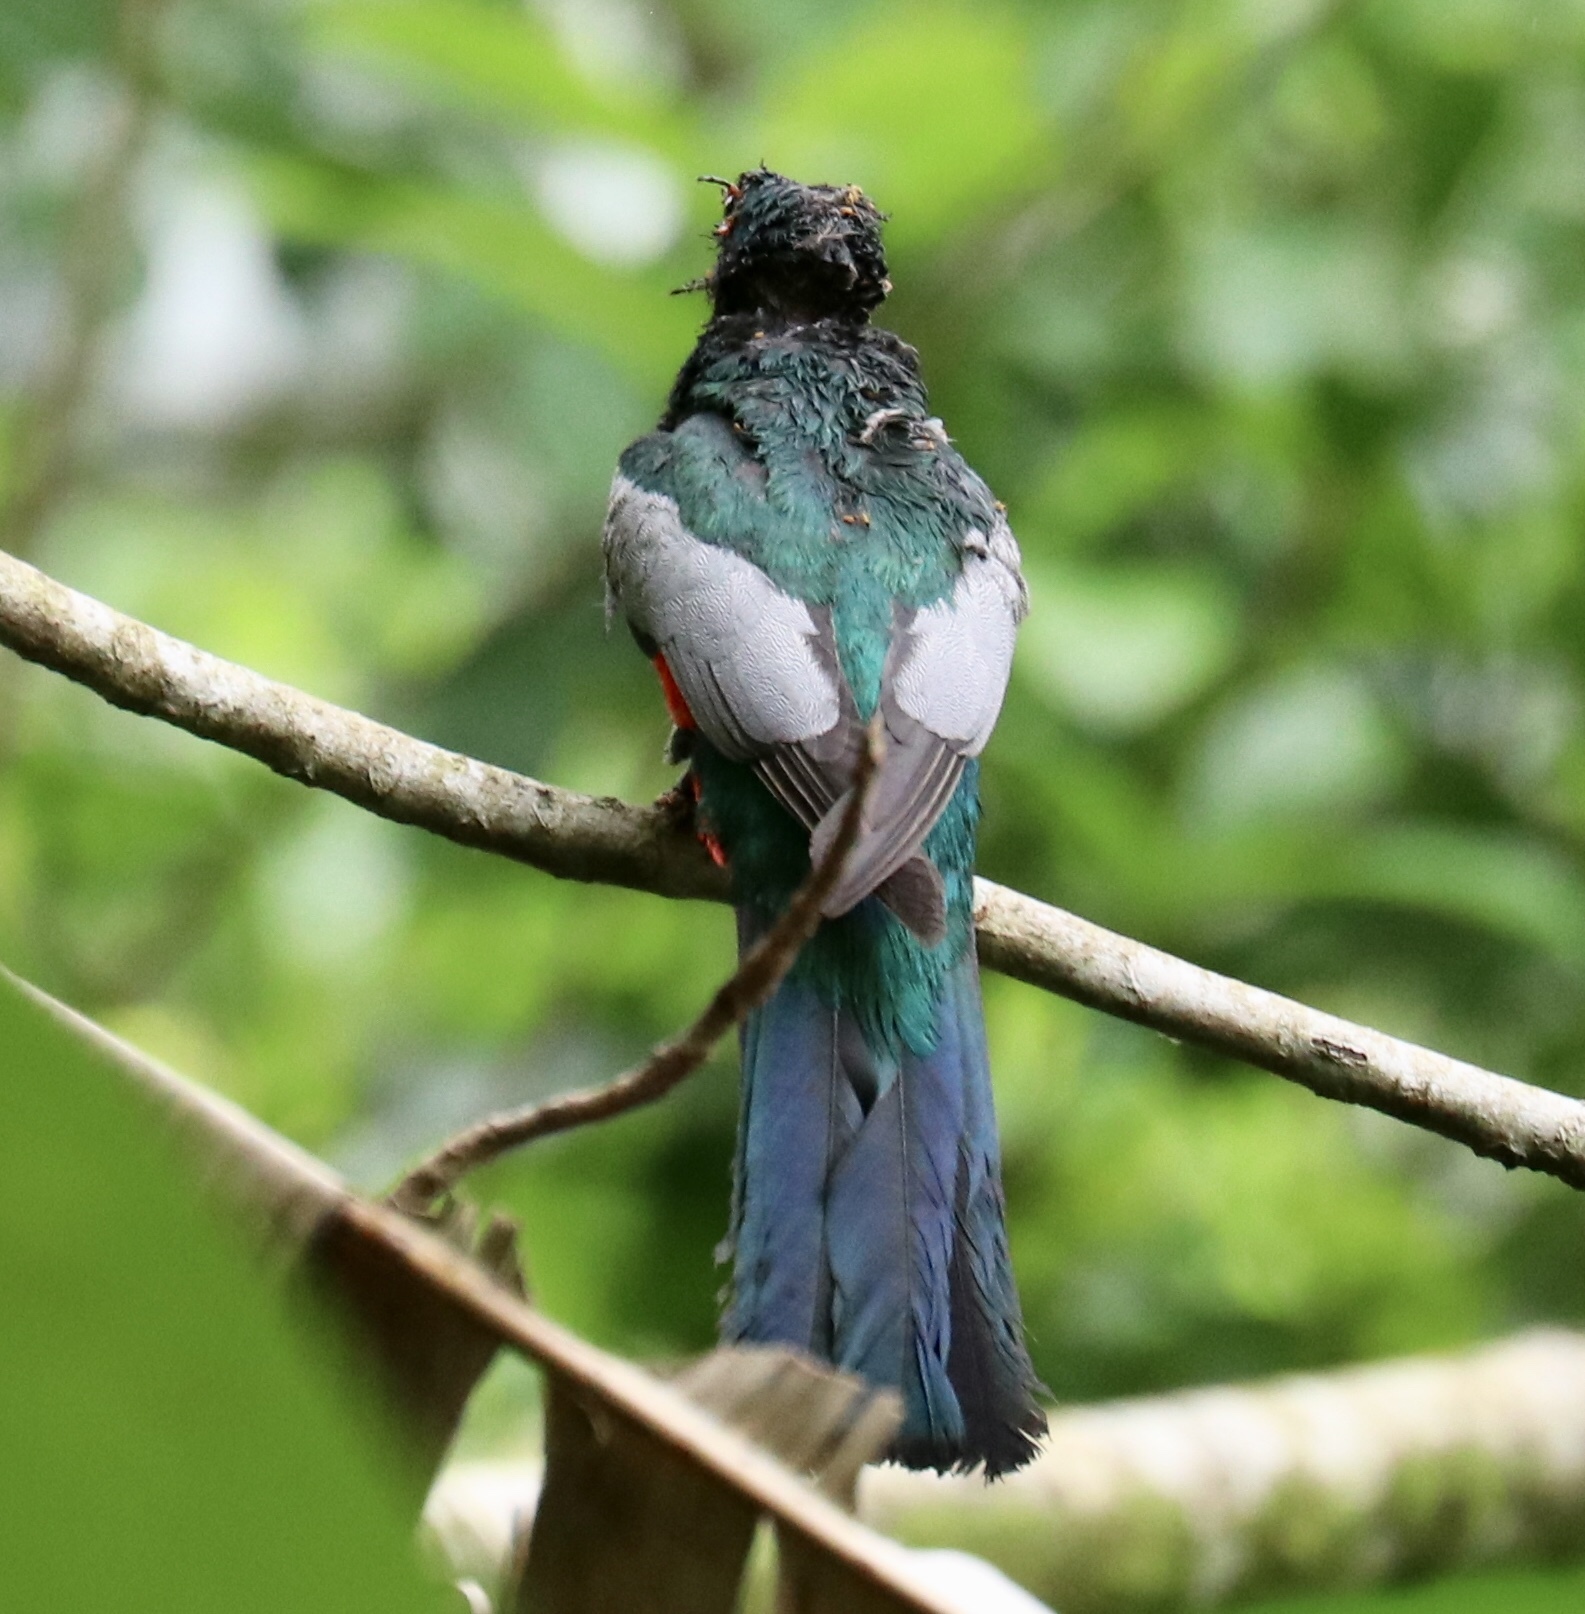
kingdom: Animalia
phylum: Chordata
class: Aves
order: Trogoniformes
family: Trogonidae
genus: Trogon
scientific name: Trogon massena
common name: Slaty-tailed trogon
